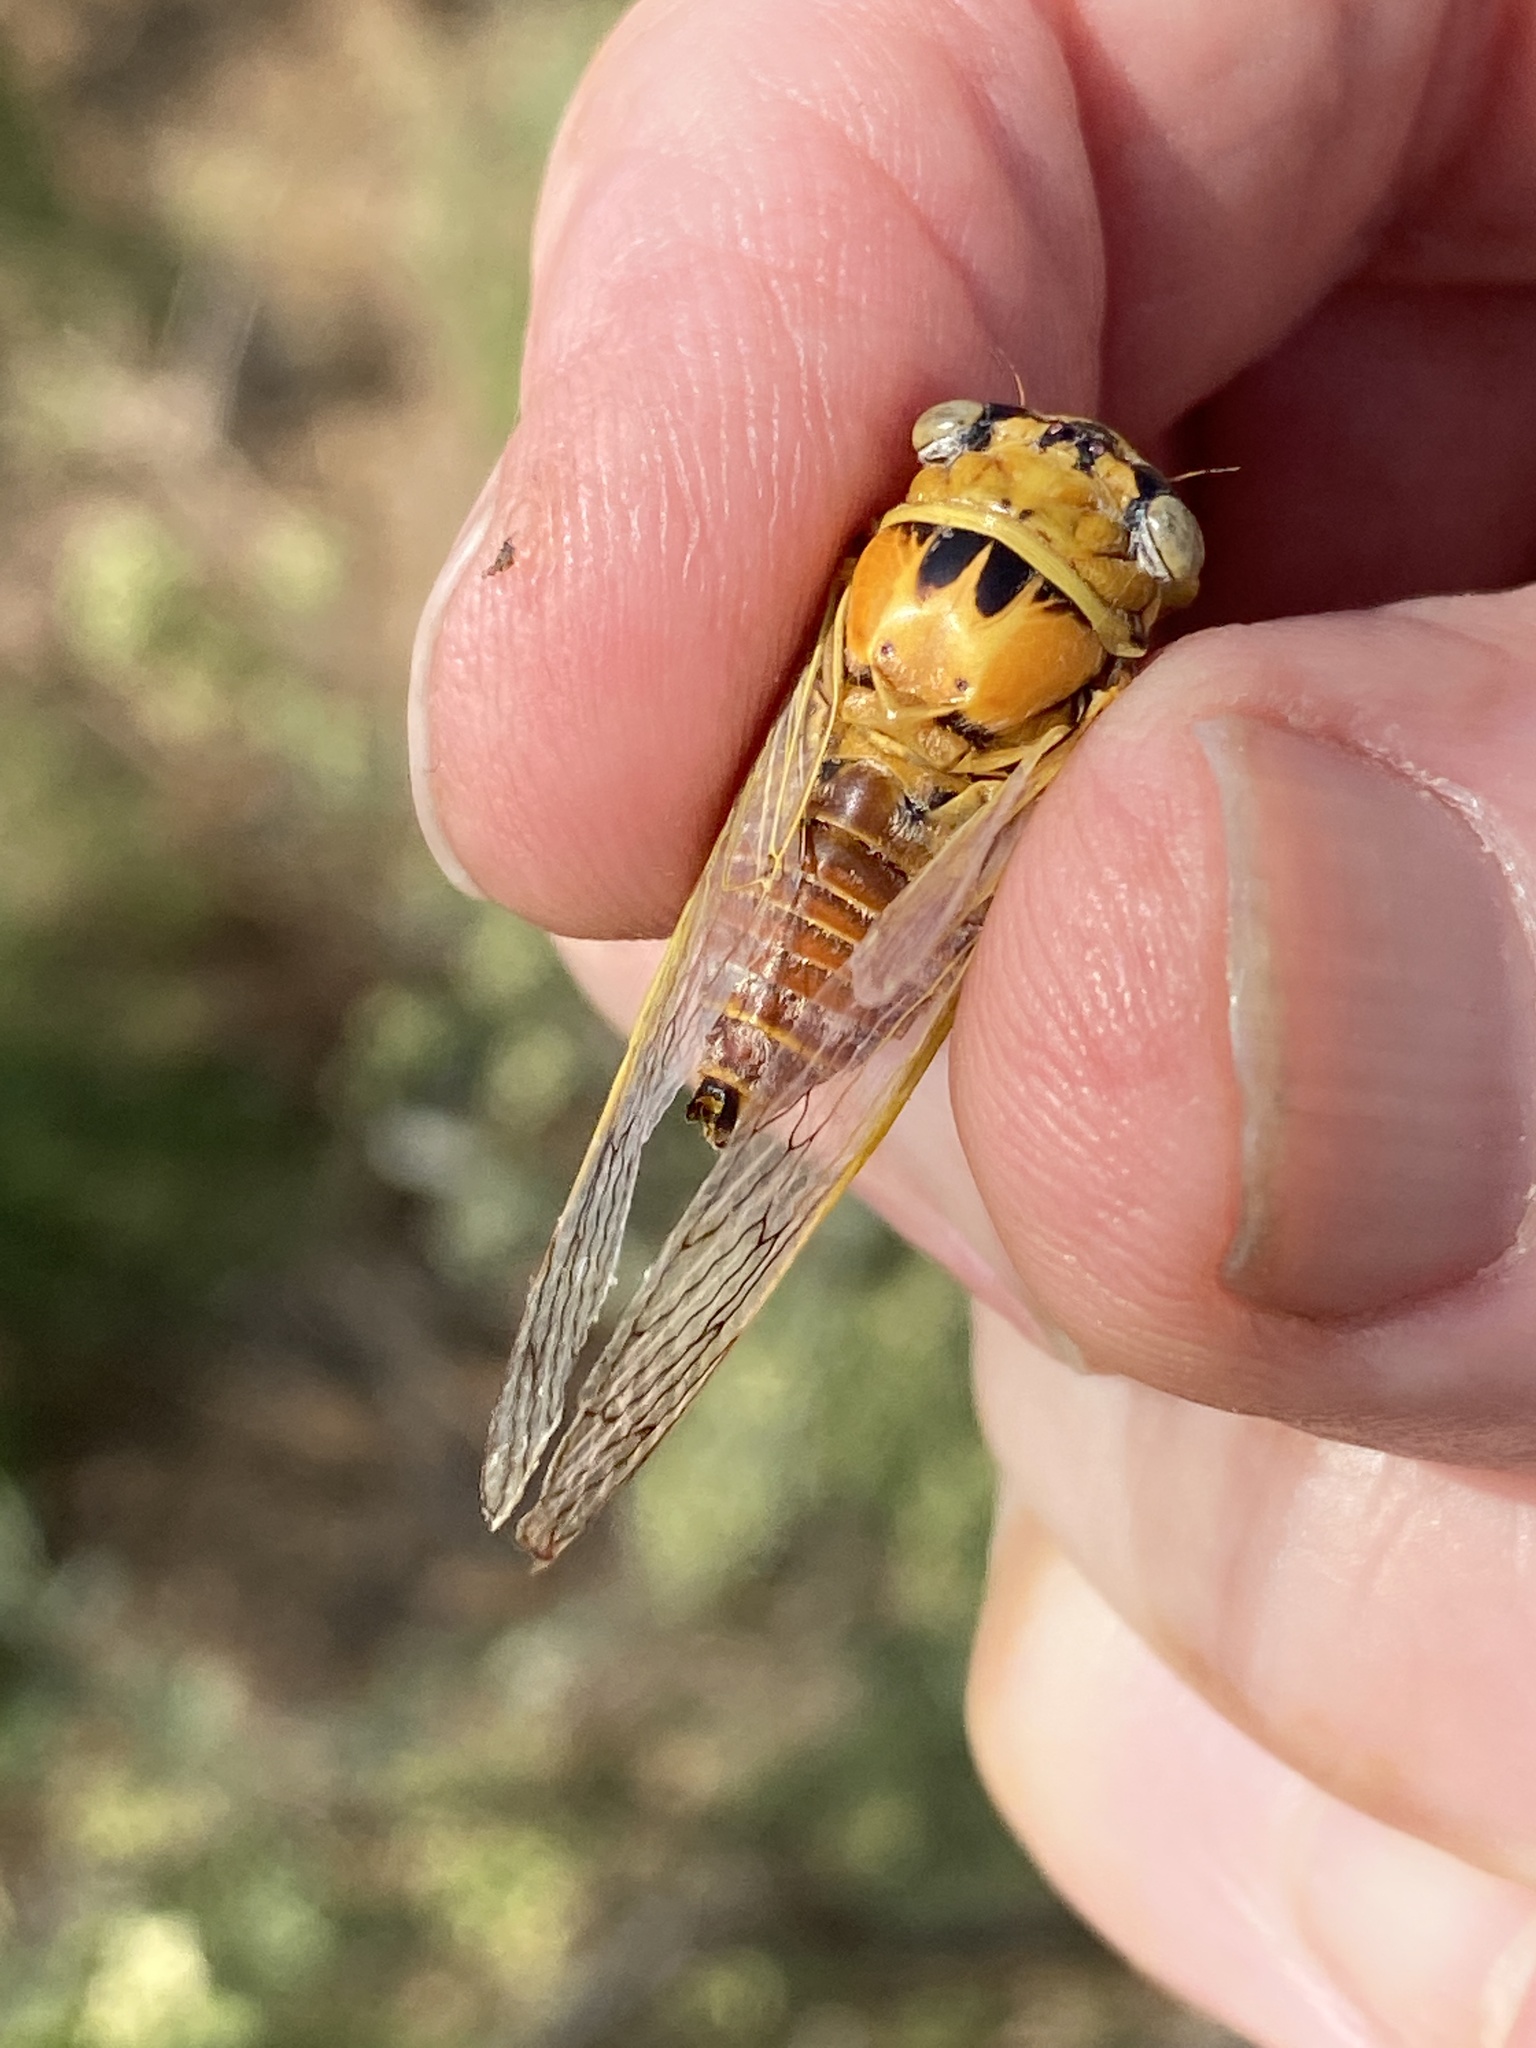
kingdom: Animalia
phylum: Arthropoda
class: Insecta
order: Hemiptera
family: Cicadidae
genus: Diceroprocta
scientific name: Diceroprocta aurantiaca
